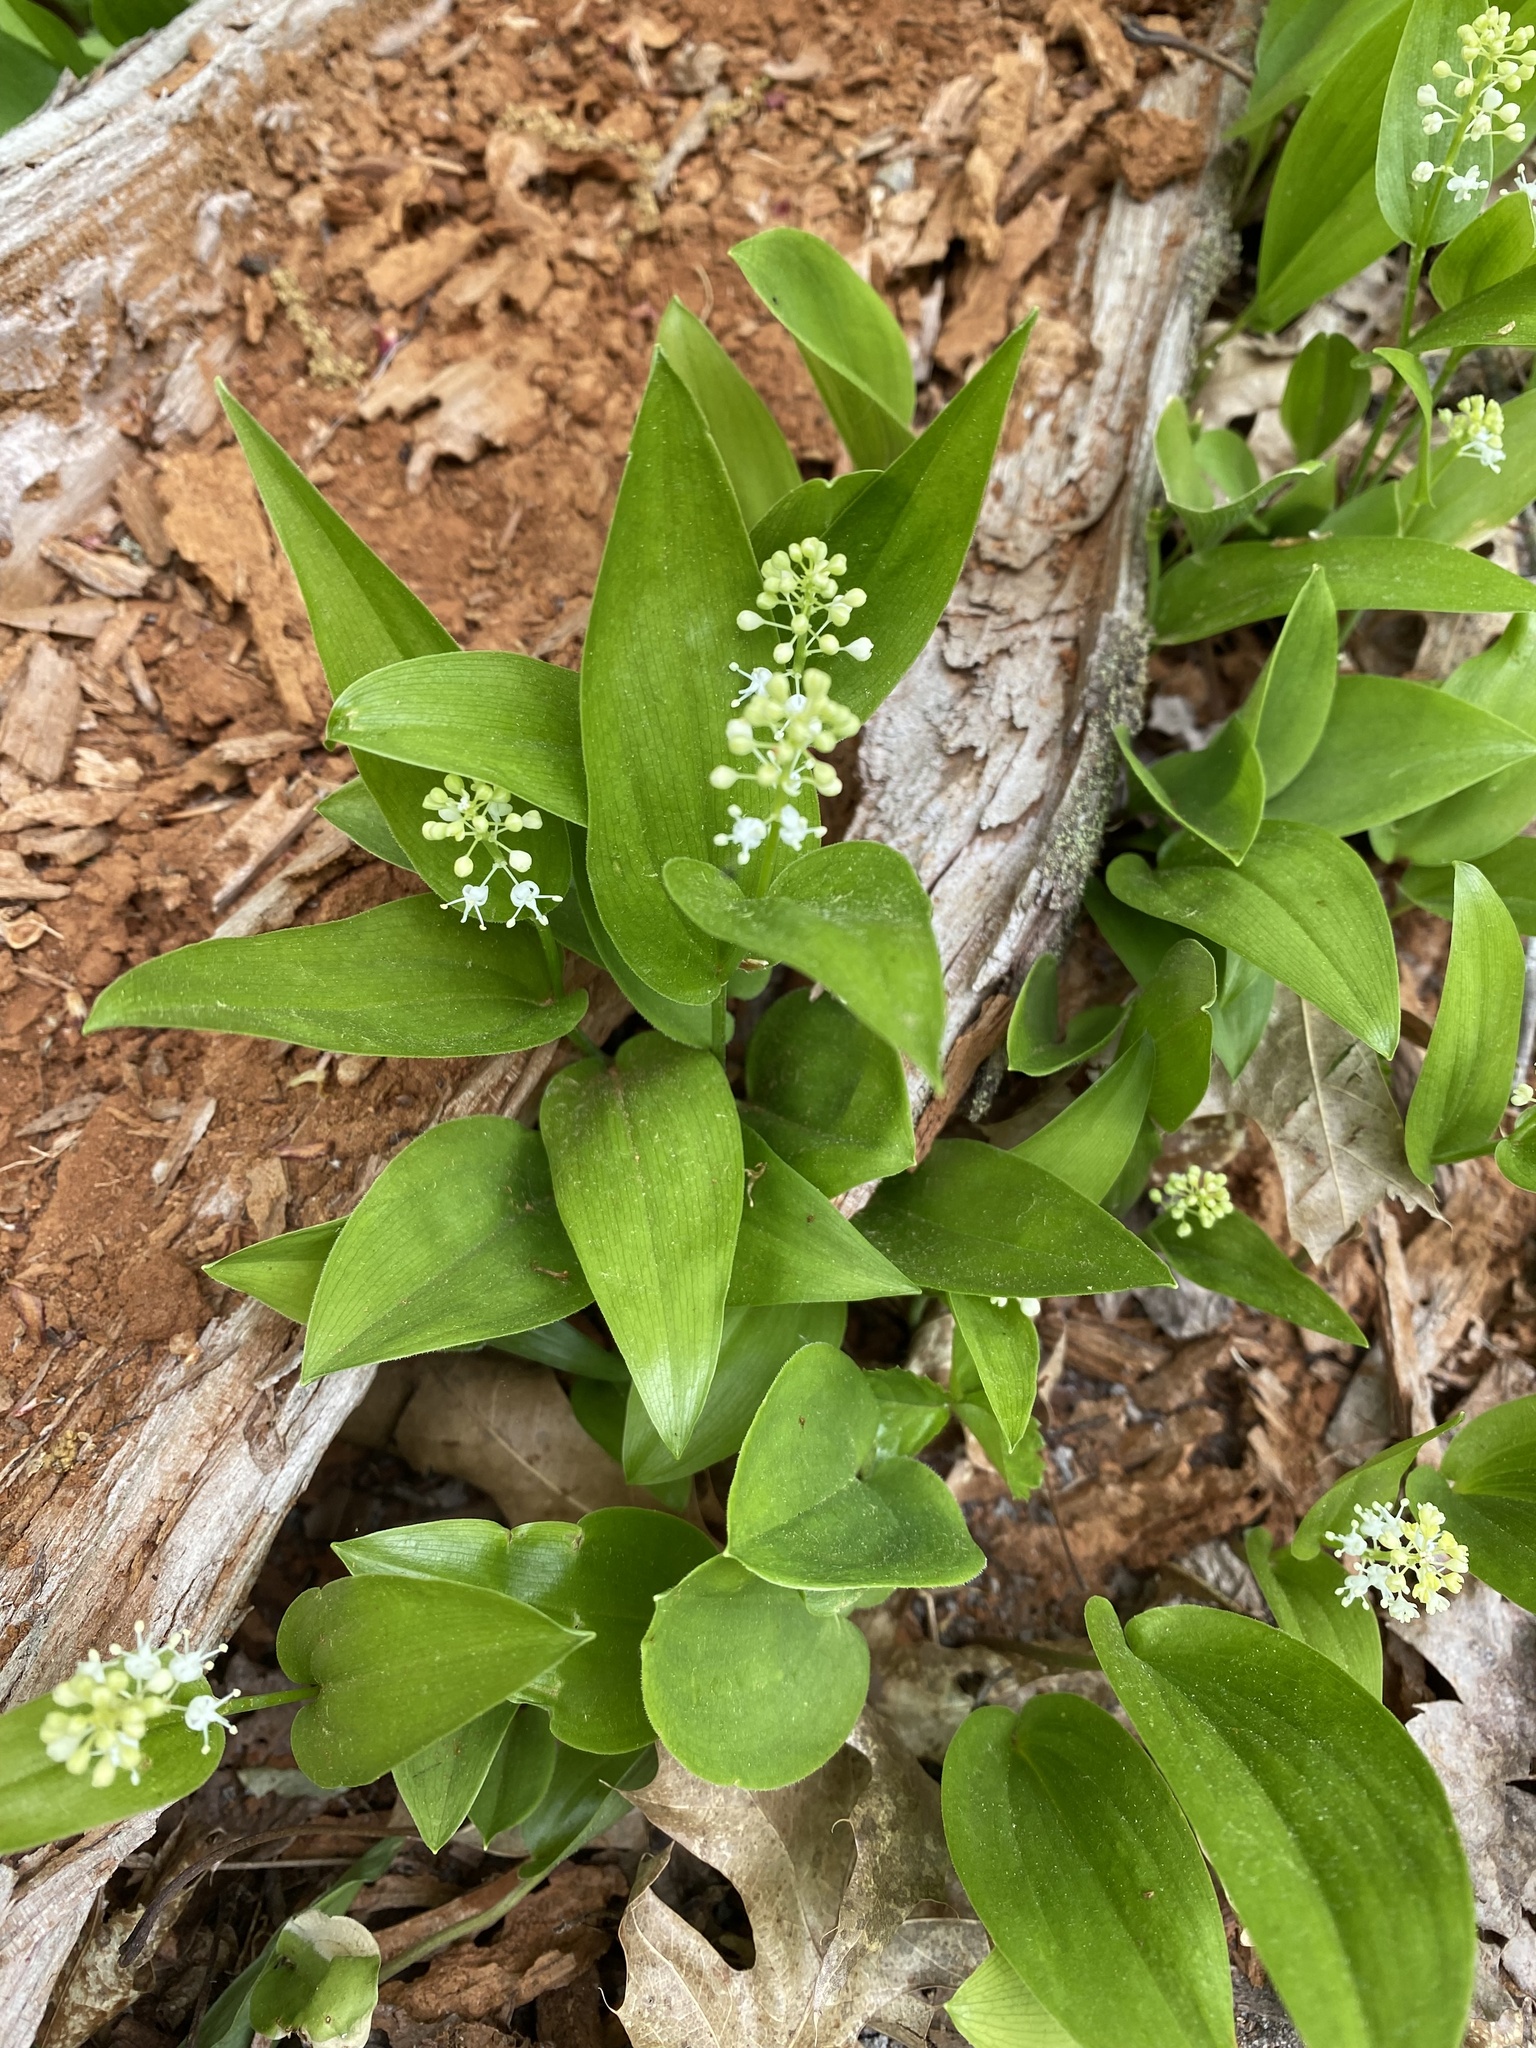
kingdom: Plantae
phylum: Tracheophyta
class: Liliopsida
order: Asparagales
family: Asparagaceae
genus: Maianthemum
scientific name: Maianthemum canadense
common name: False lily-of-the-valley
